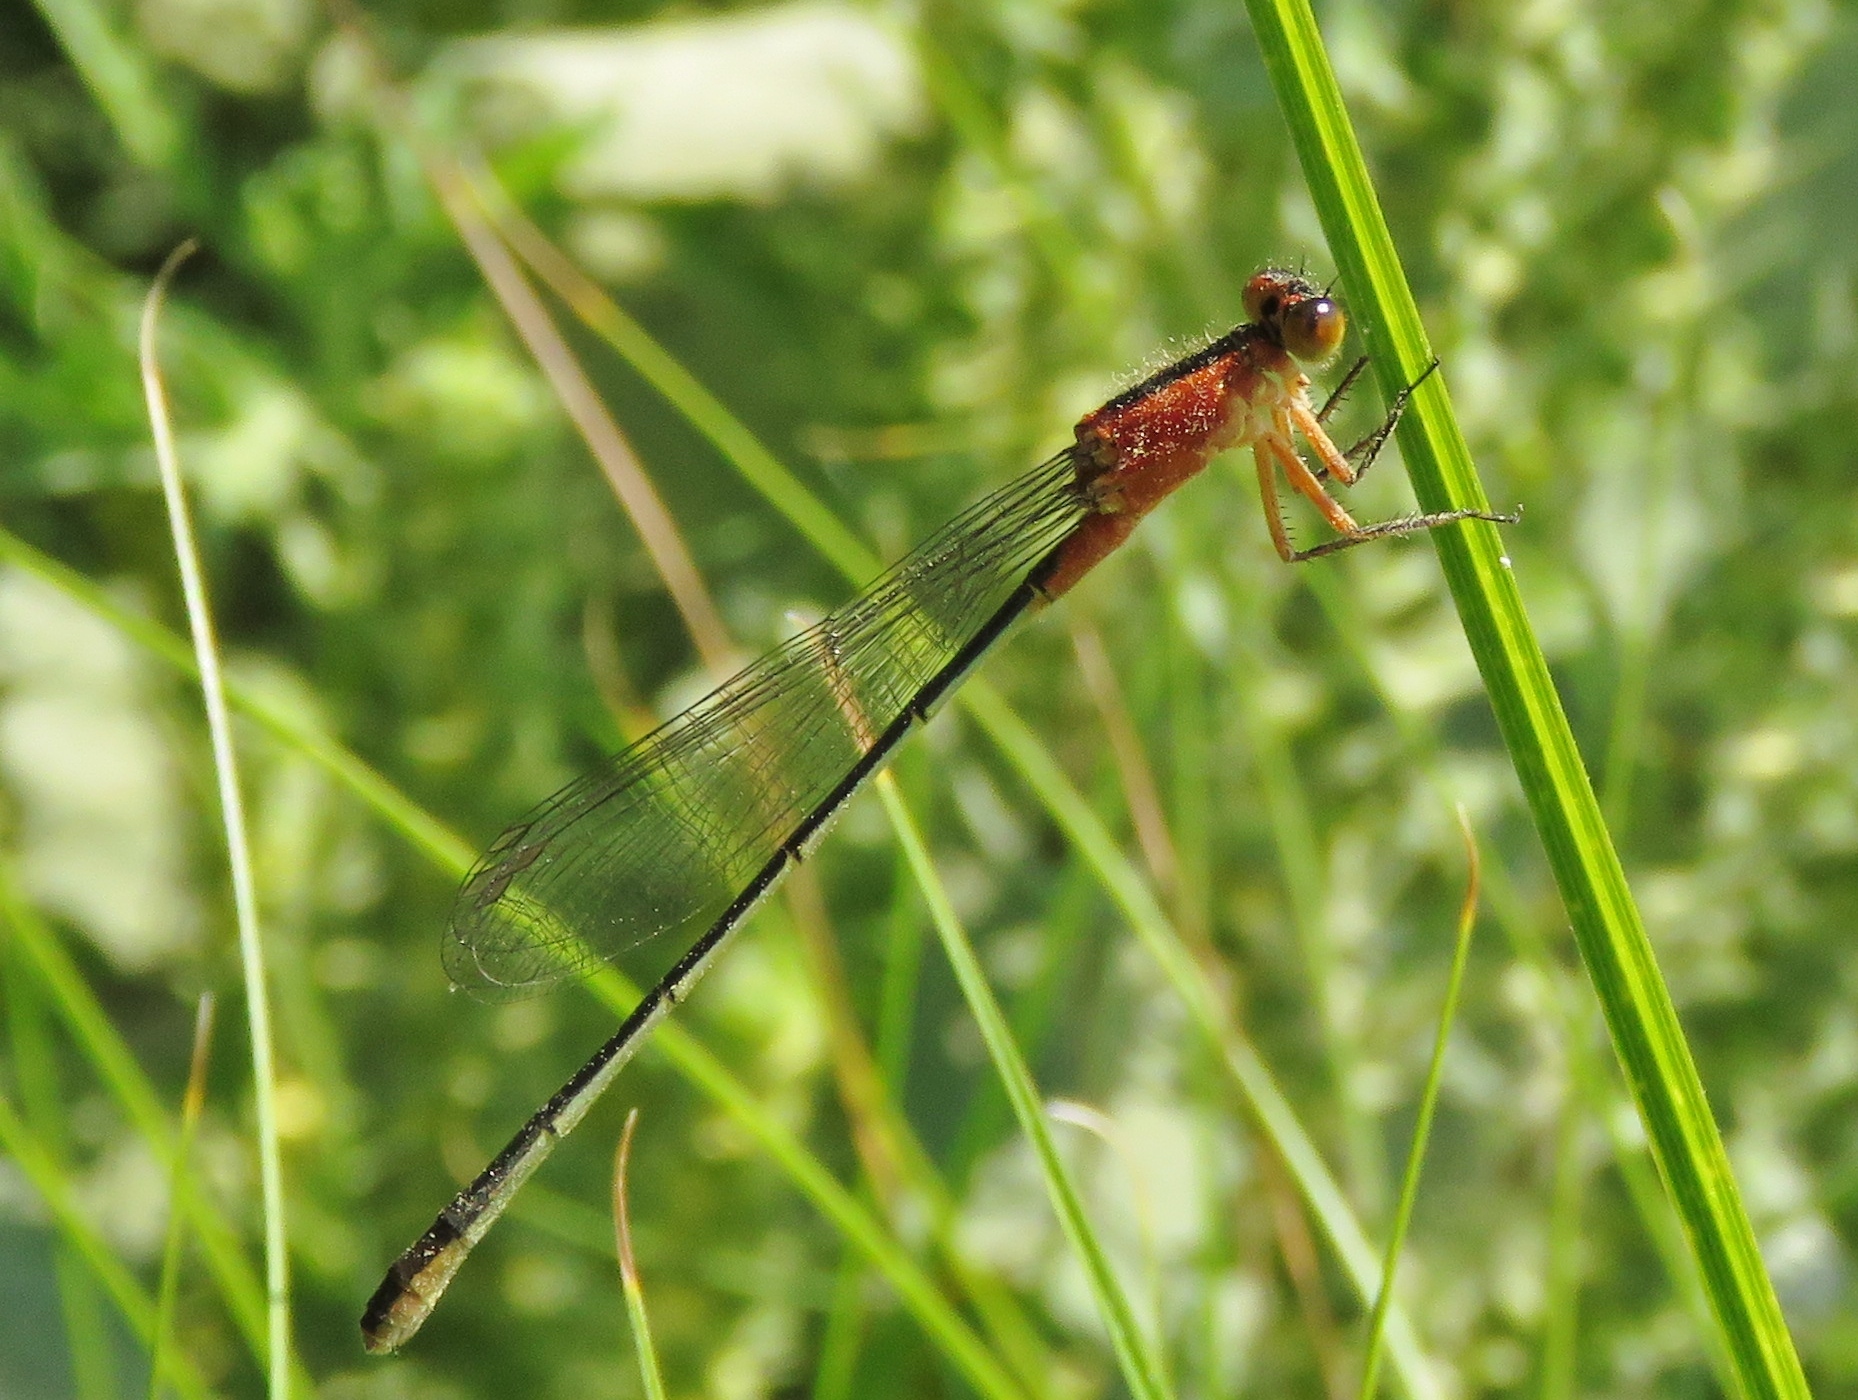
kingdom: Animalia
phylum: Arthropoda
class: Insecta
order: Odonata
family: Coenagrionidae
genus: Ischnura
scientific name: Ischnura ramburii
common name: Rambur's forktail
